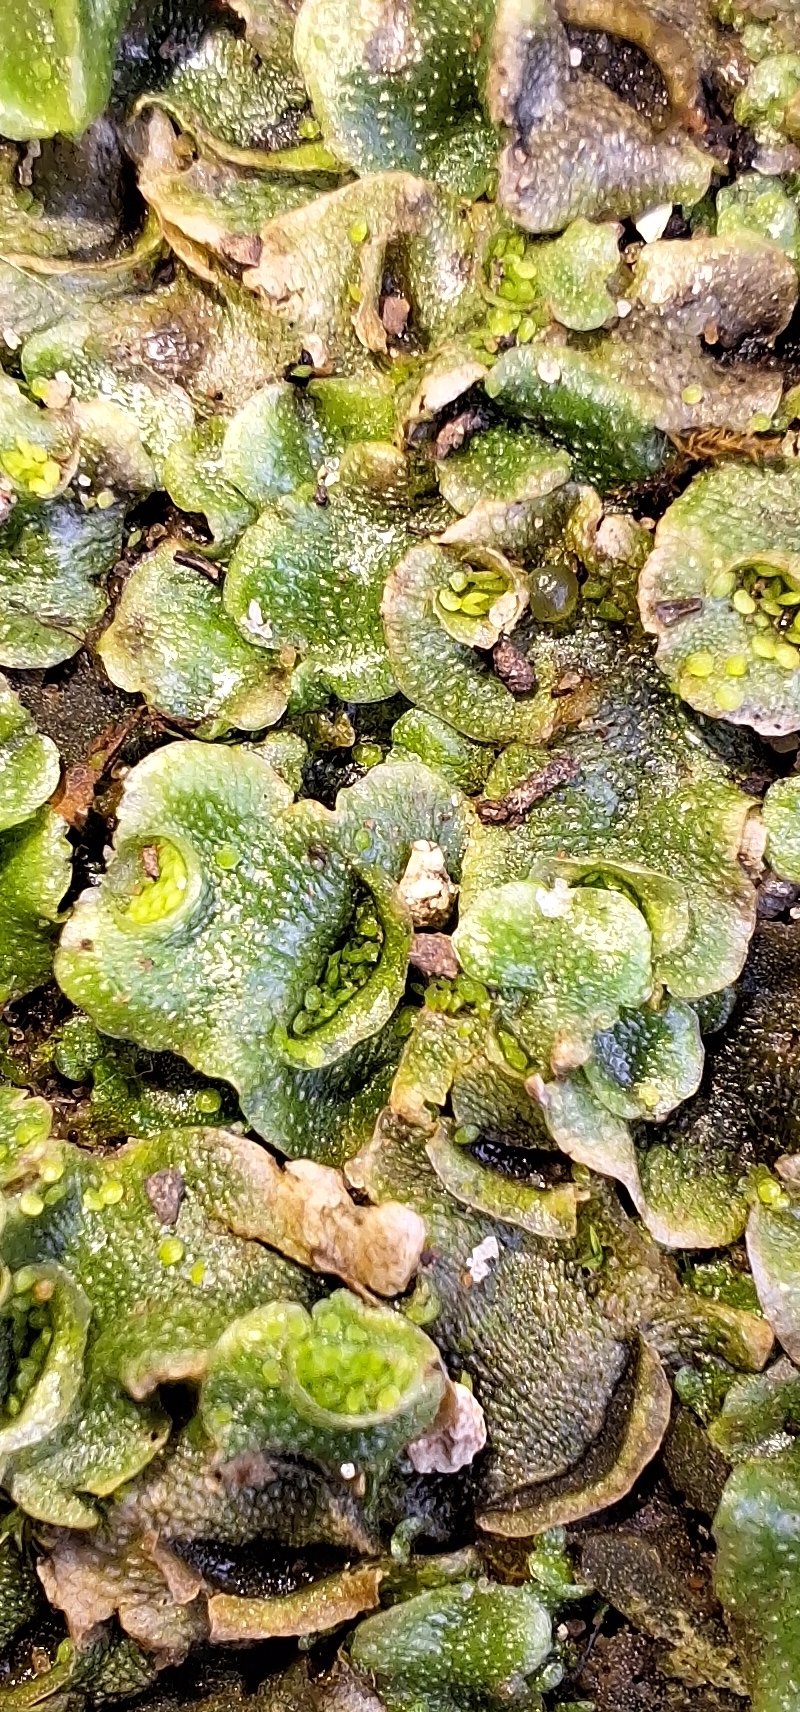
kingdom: Plantae
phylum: Marchantiophyta
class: Marchantiopsida
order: Lunulariales
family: Lunulariaceae
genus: Lunularia
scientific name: Lunularia cruciata
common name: Crescent-cup liverwort
